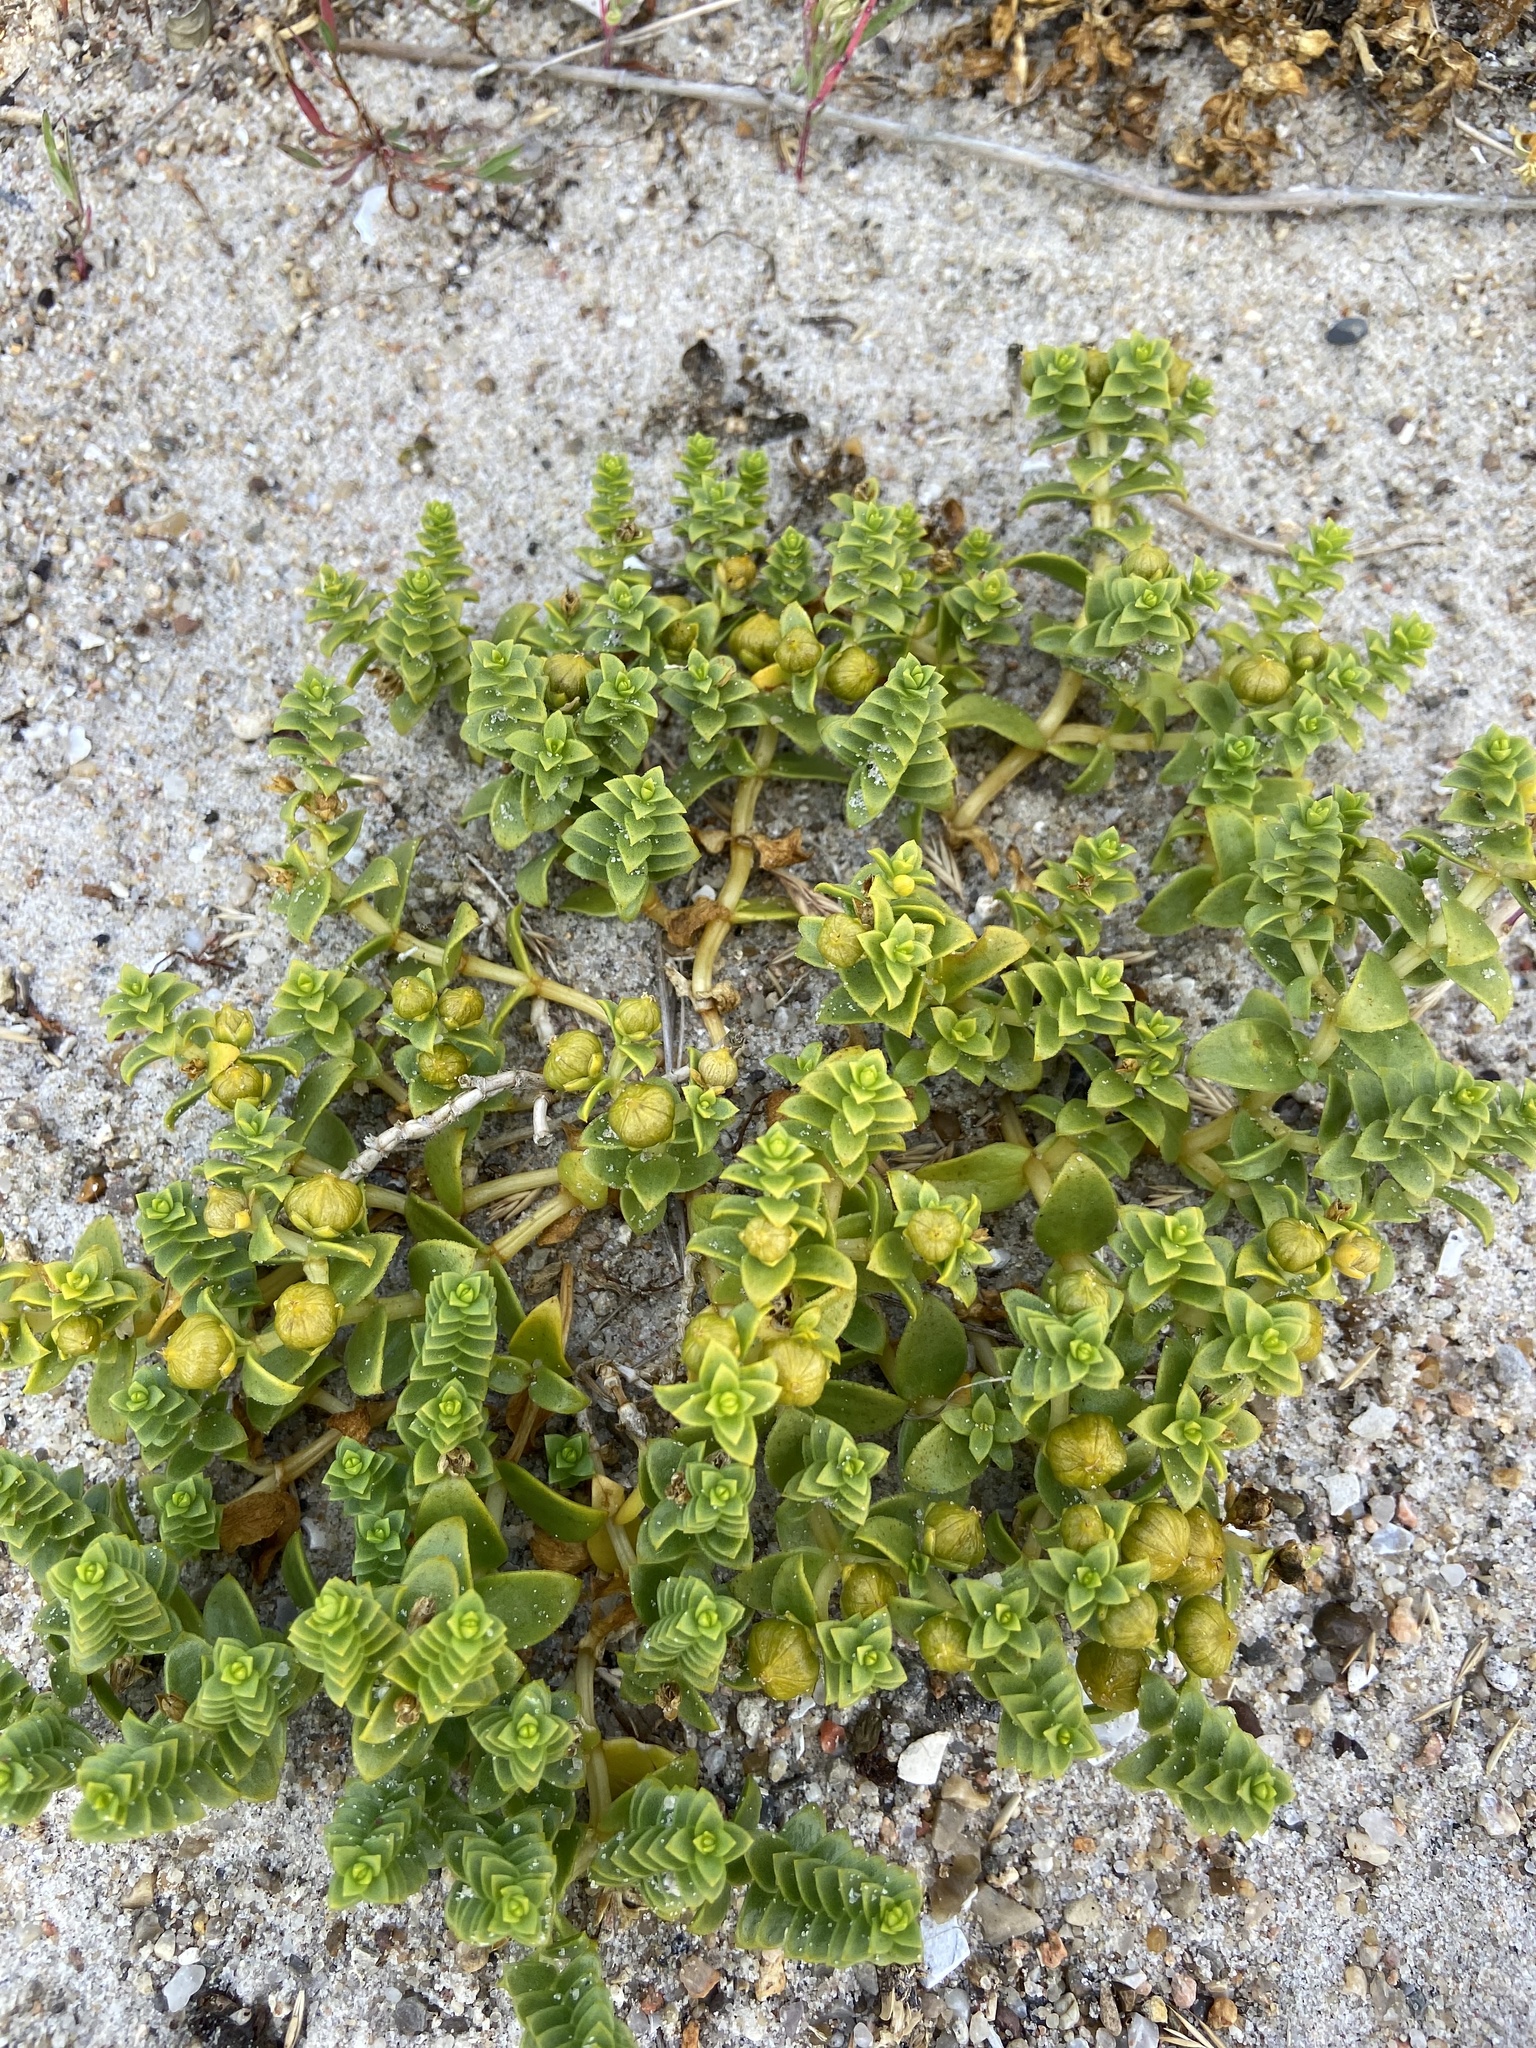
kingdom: Plantae
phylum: Tracheophyta
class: Magnoliopsida
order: Caryophyllales
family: Caryophyllaceae
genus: Honckenya
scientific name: Honckenya peploides
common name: Sea sandwort
